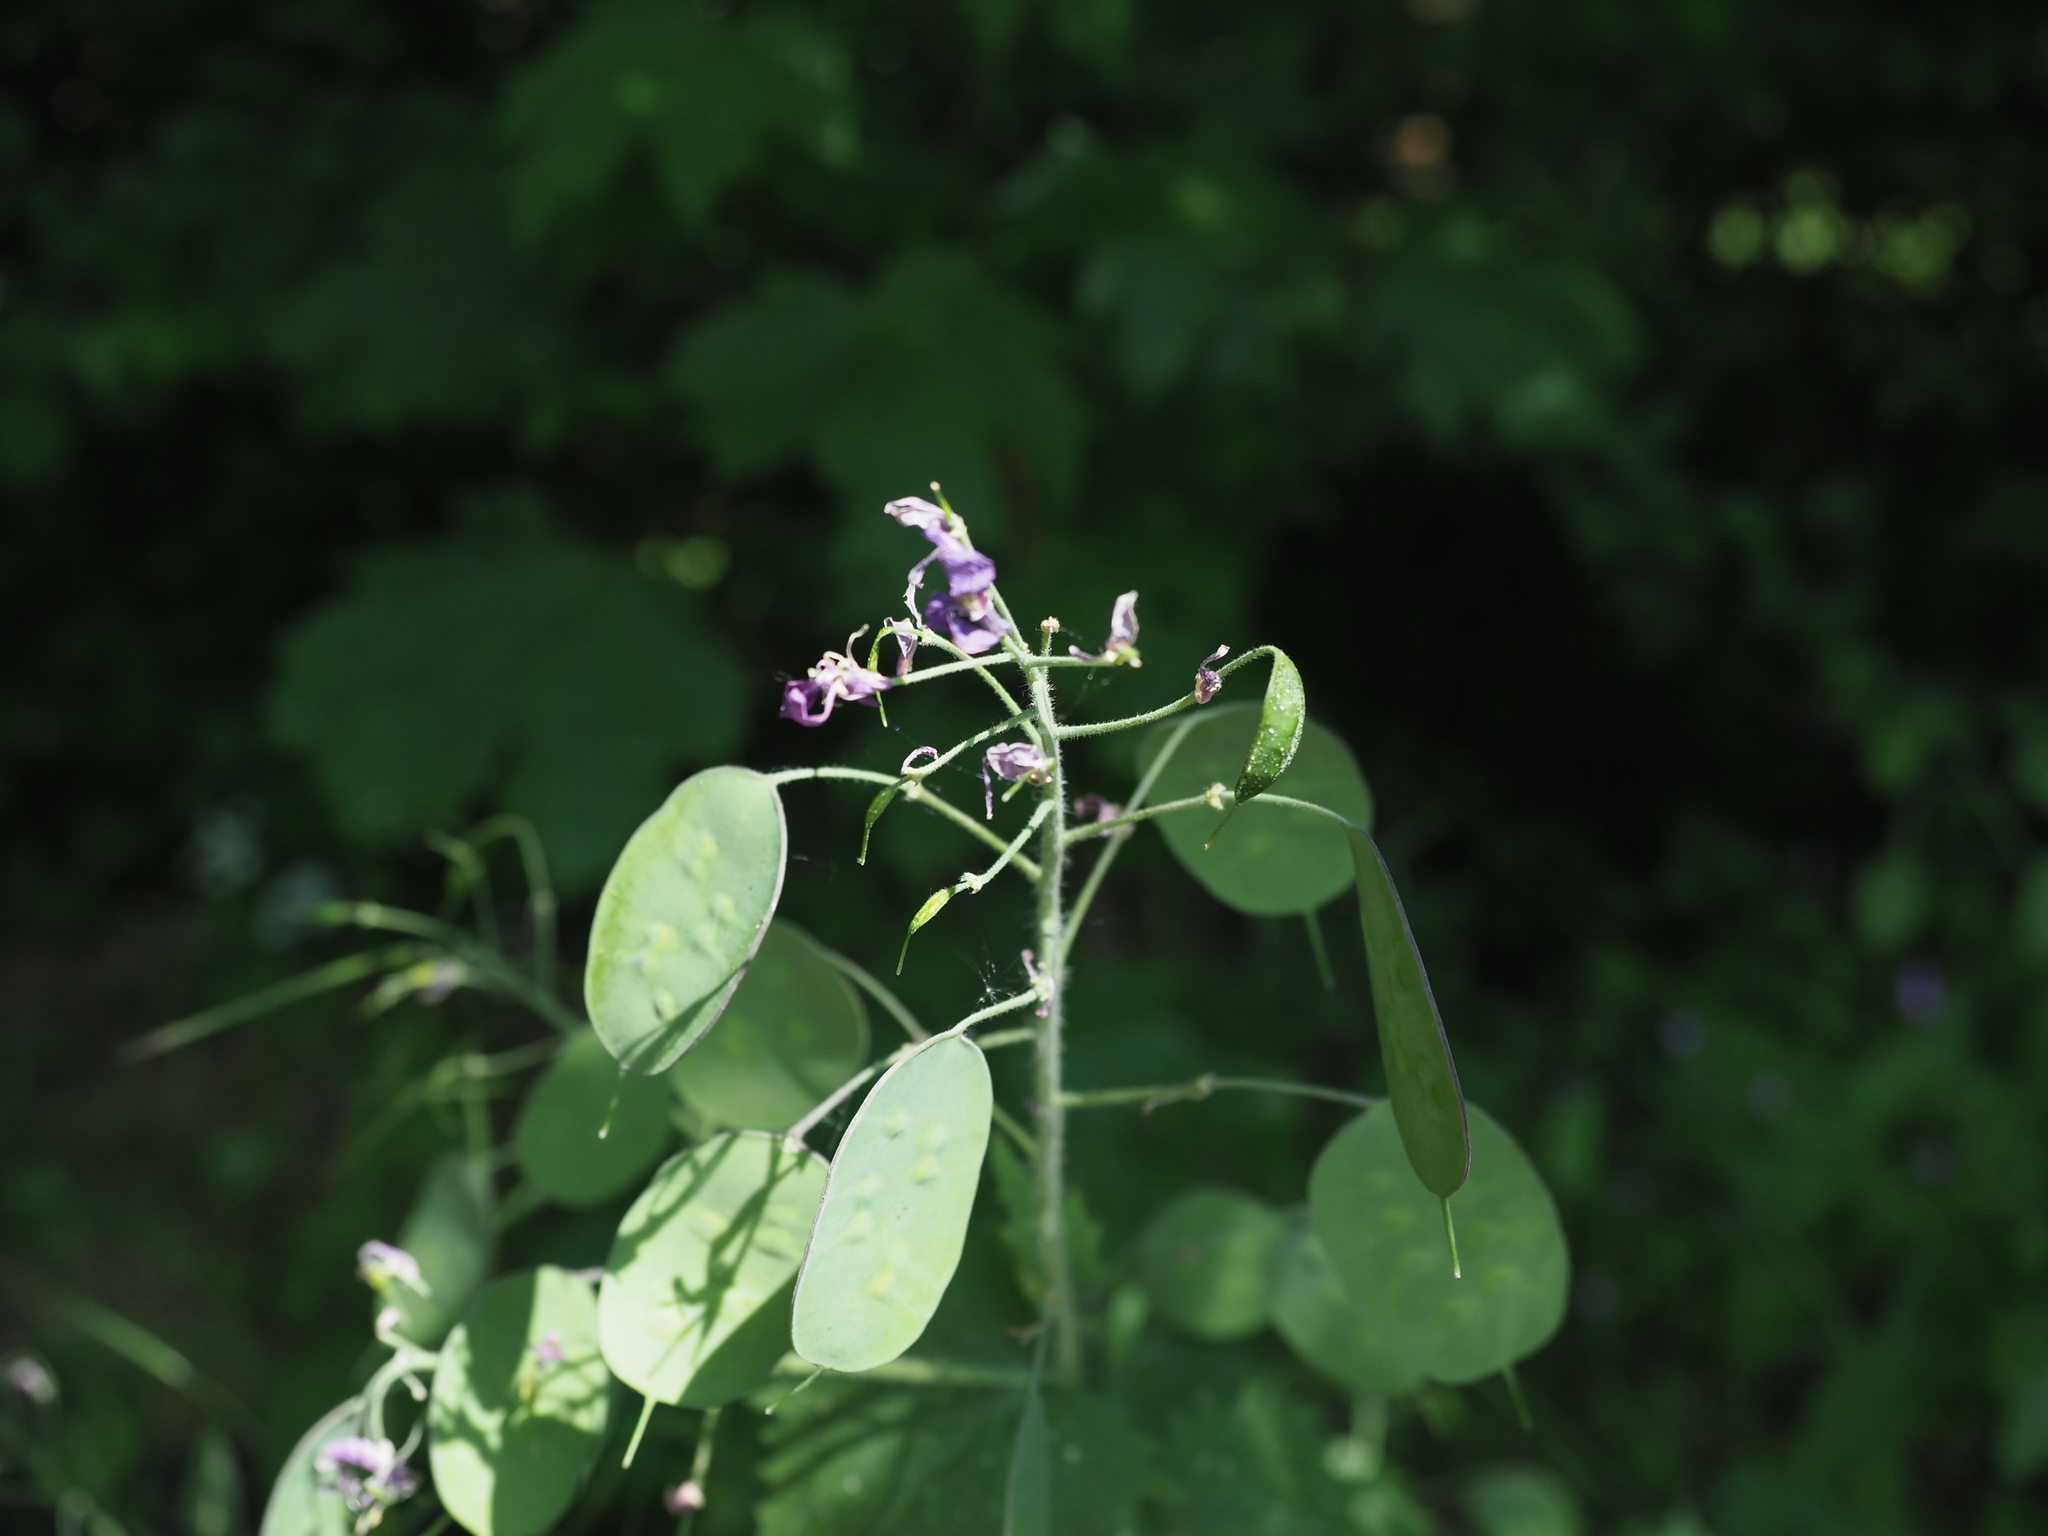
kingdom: Plantae
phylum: Tracheophyta
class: Magnoliopsida
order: Brassicales
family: Brassicaceae
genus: Lunaria
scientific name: Lunaria annua
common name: Honesty
